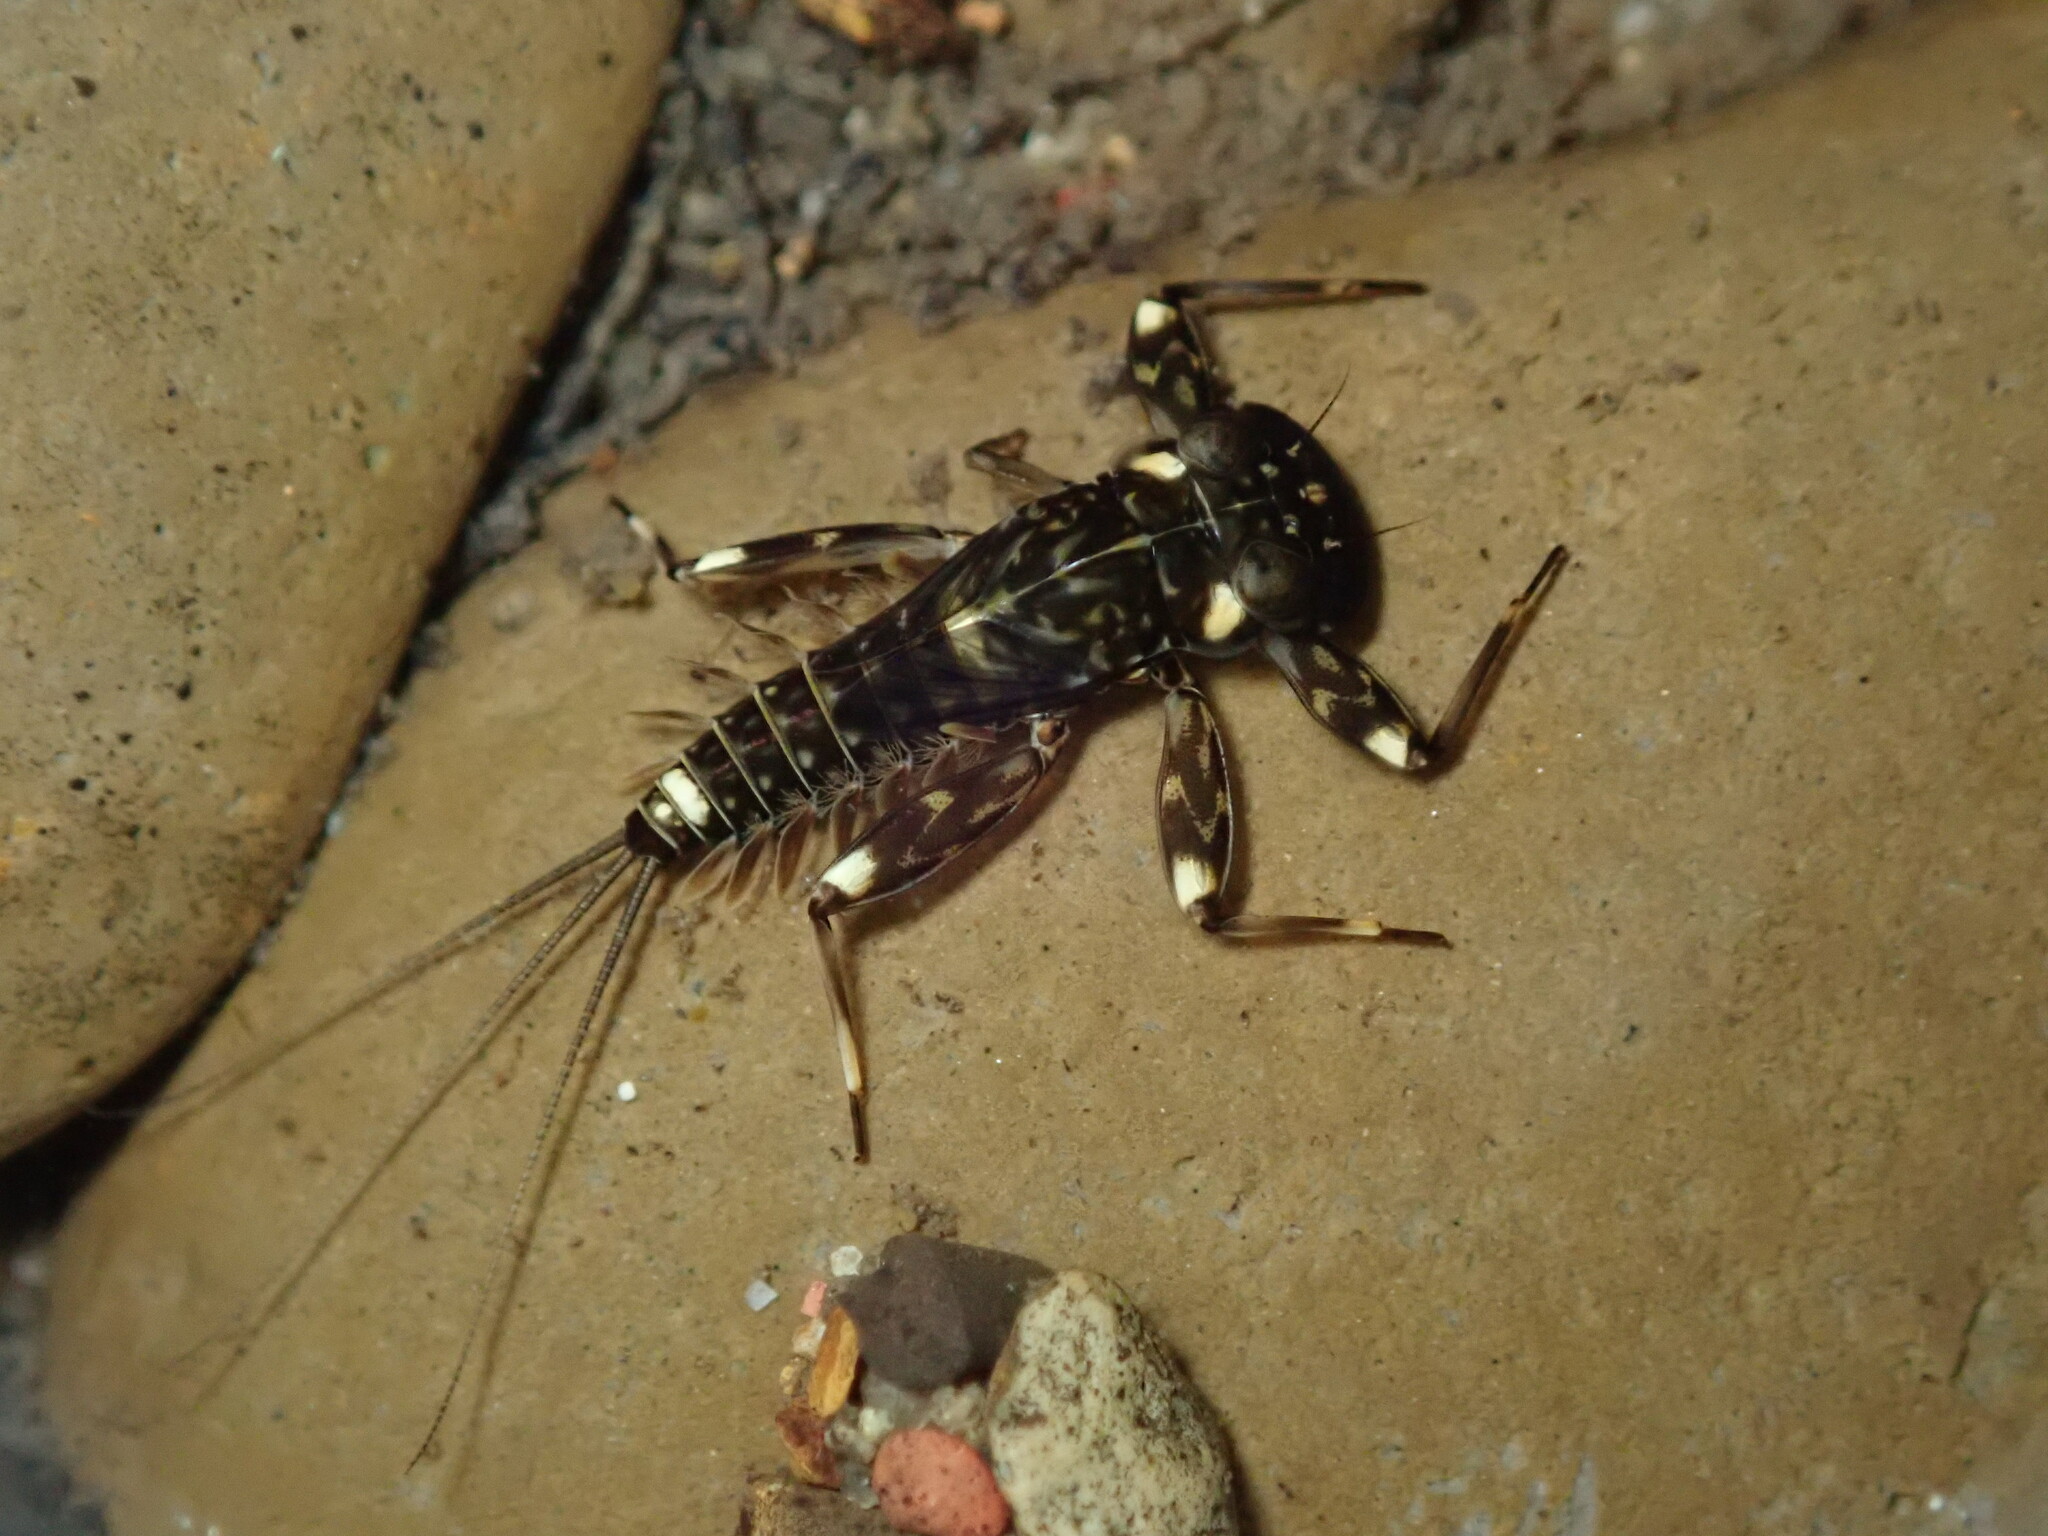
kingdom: Animalia
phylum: Arthropoda
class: Insecta
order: Ephemeroptera
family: Heptageniidae
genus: Heptagenia
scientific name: Heptagenia adaequata
